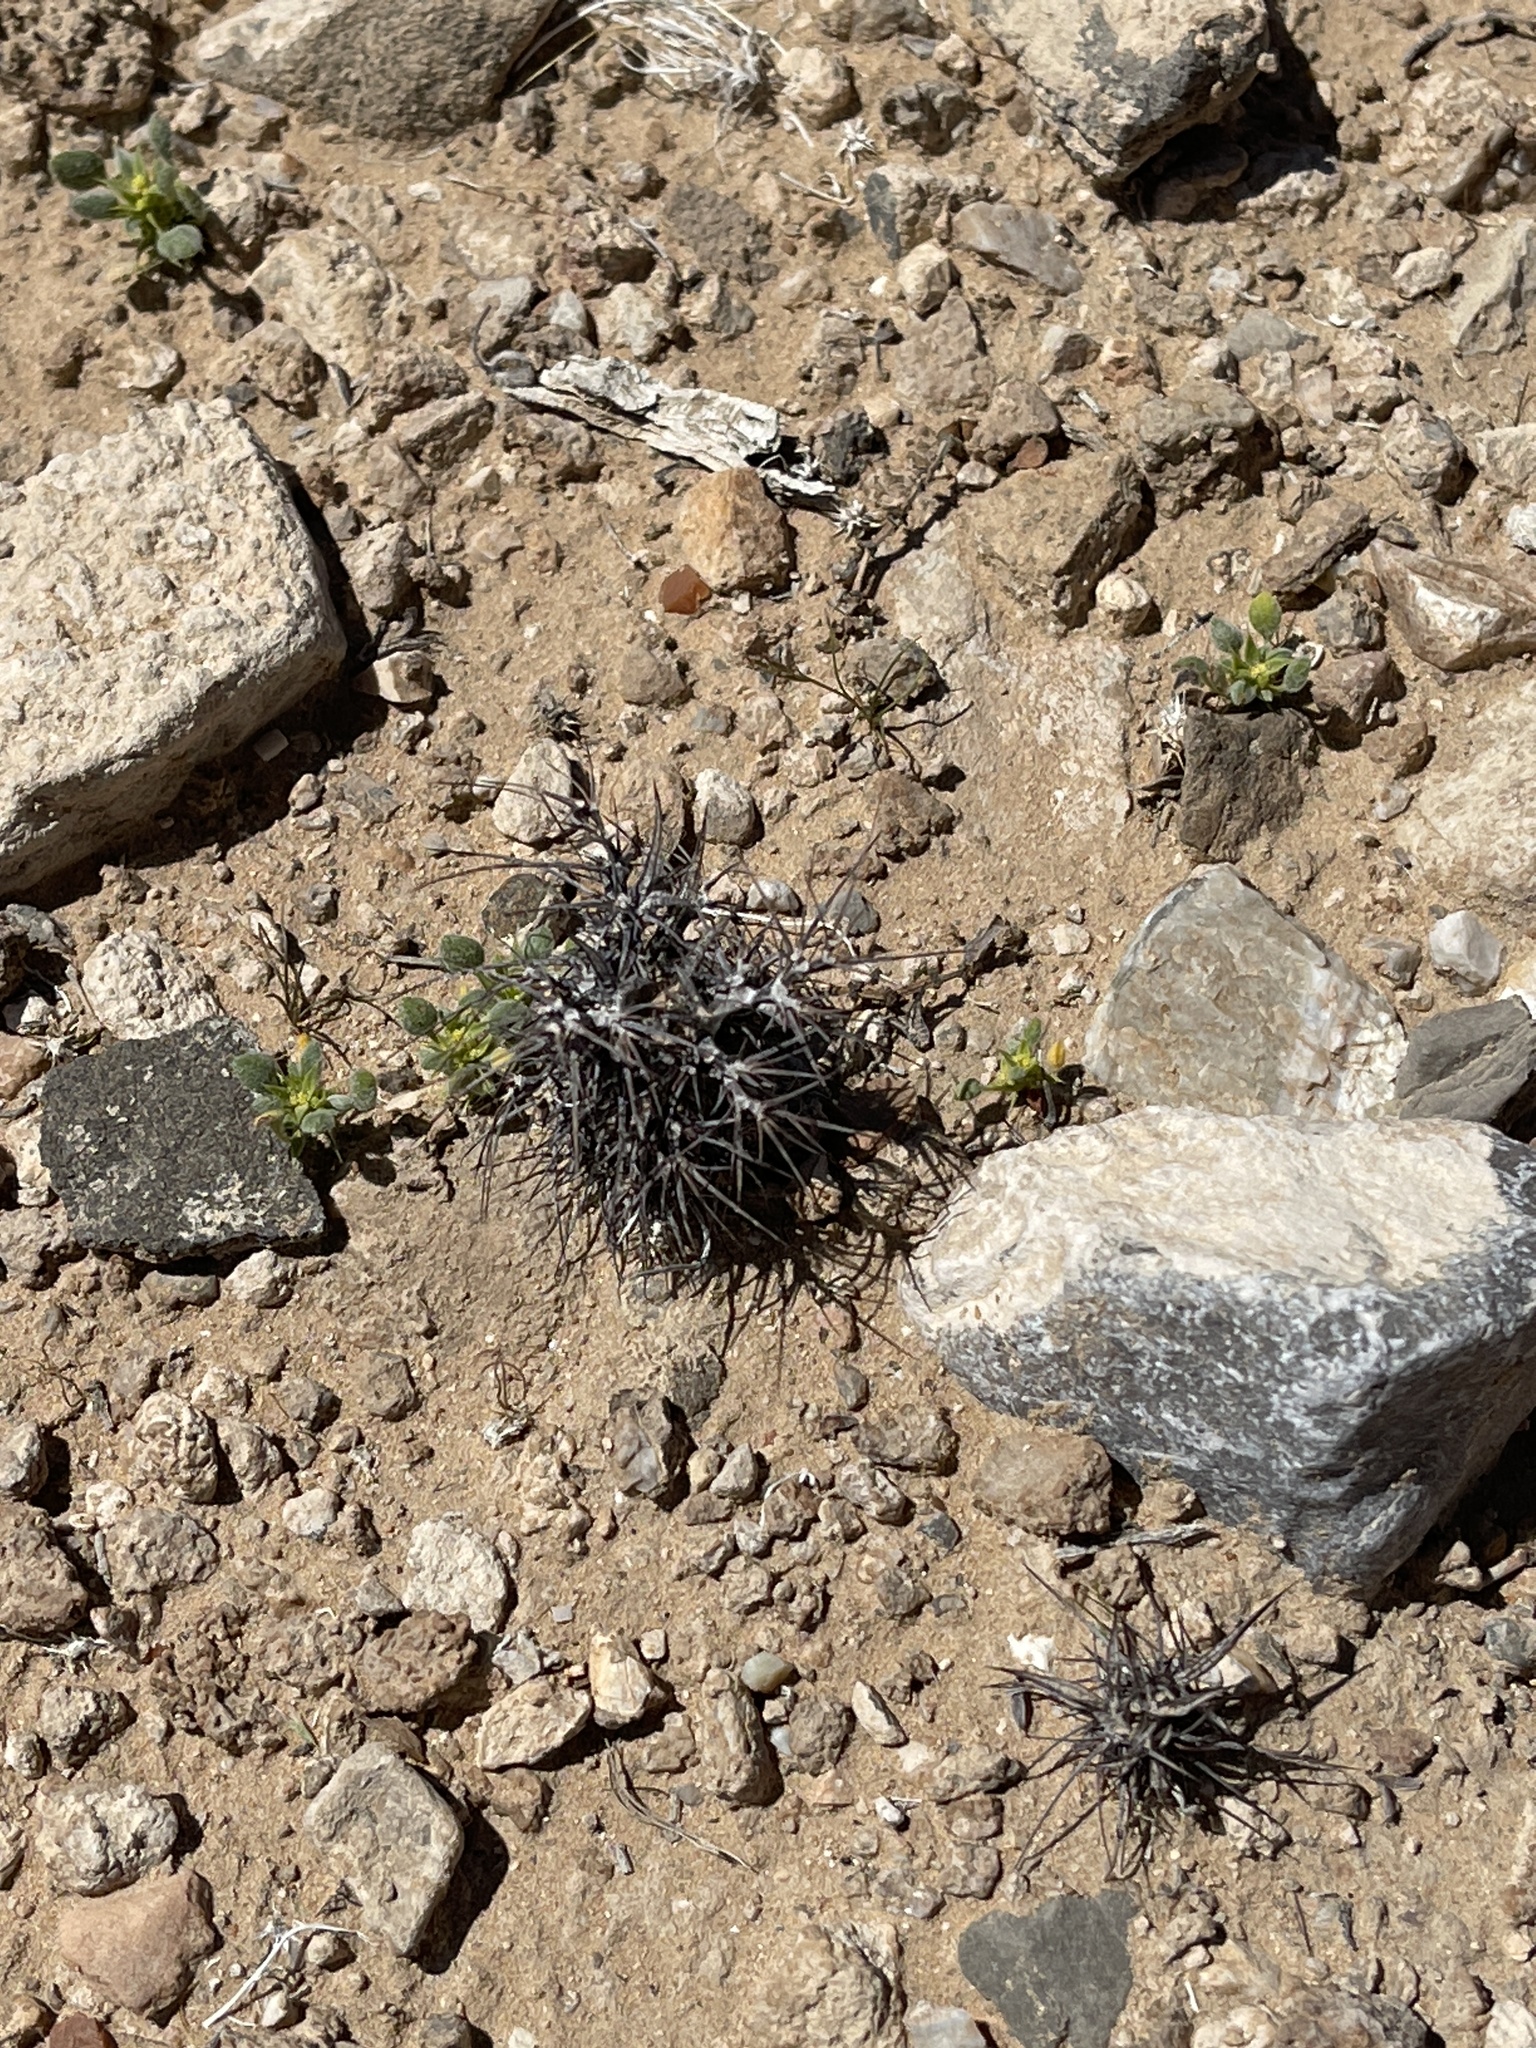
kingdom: Plantae
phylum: Tracheophyta
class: Magnoliopsida
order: Caryophyllales
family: Polygonaceae
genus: Chorizanthe
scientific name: Chorizanthe rigida
